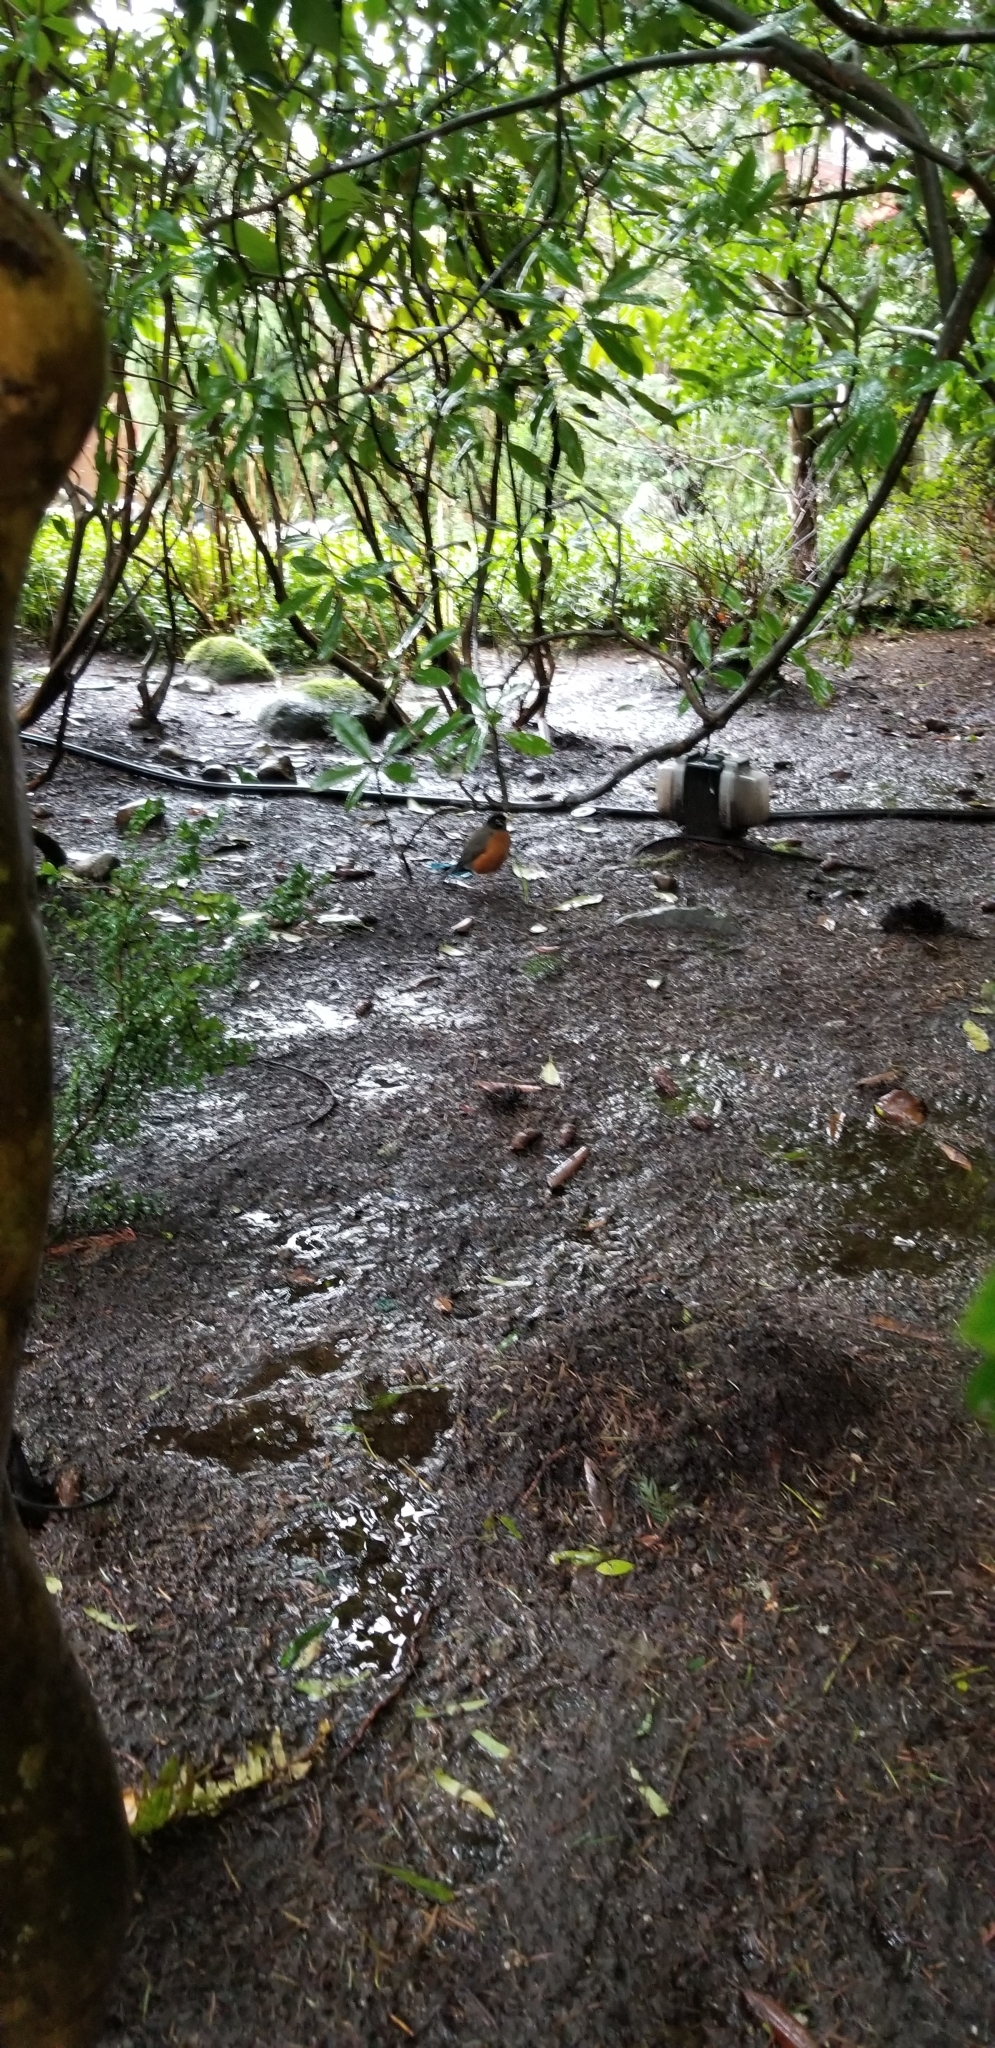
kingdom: Animalia
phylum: Chordata
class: Aves
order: Passeriformes
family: Turdidae
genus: Turdus
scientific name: Turdus migratorius
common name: American robin
